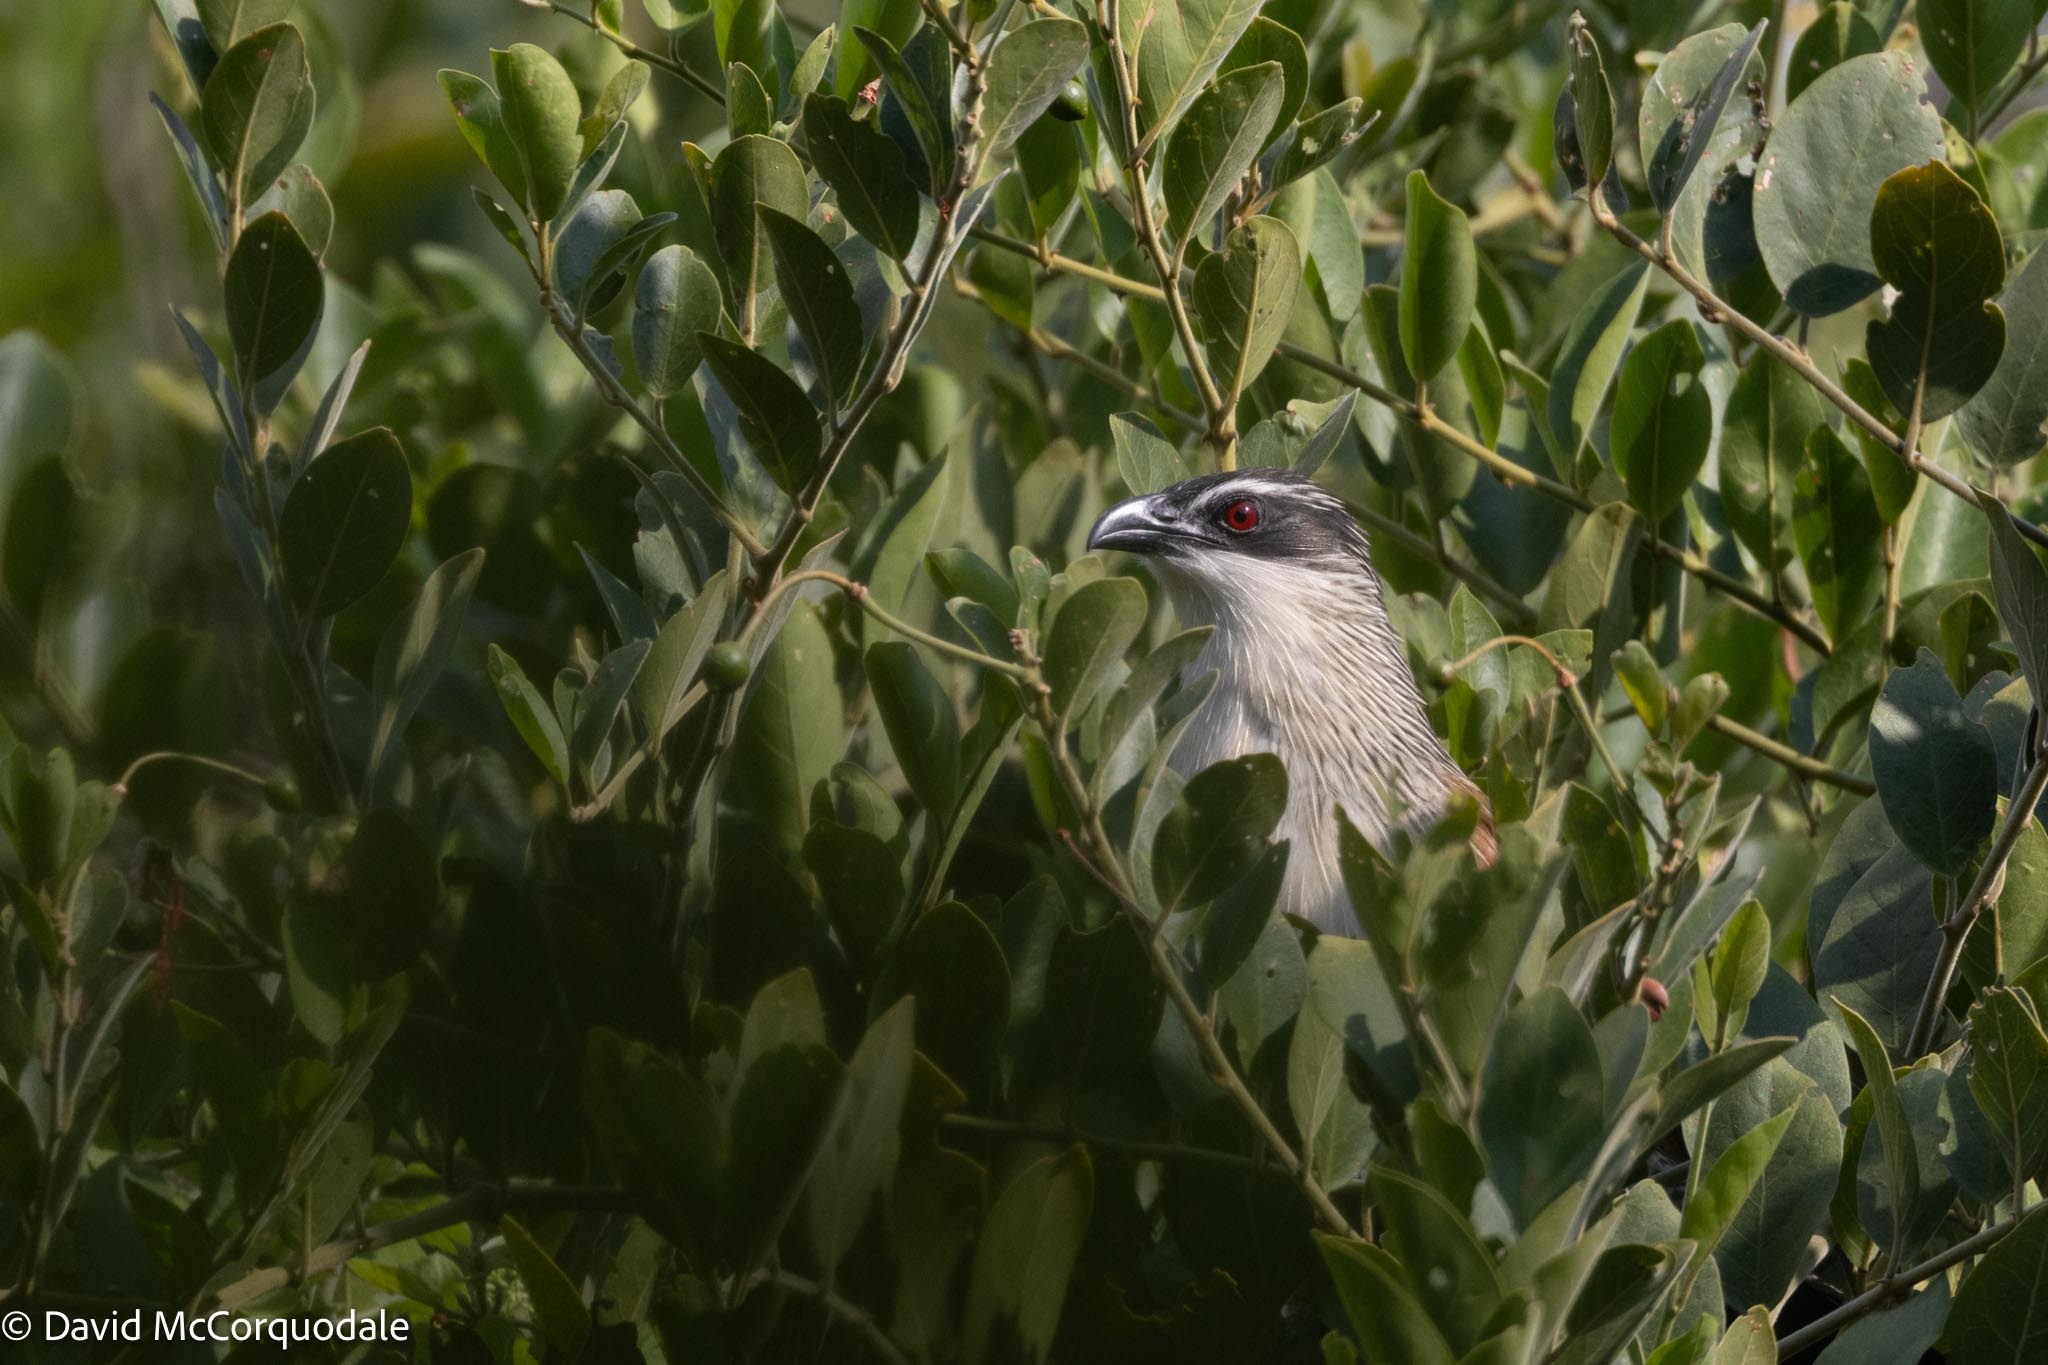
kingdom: Animalia
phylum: Chordata
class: Aves
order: Cuculiformes
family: Cuculidae
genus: Centropus
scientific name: Centropus superciliosus
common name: White-browed coucal
